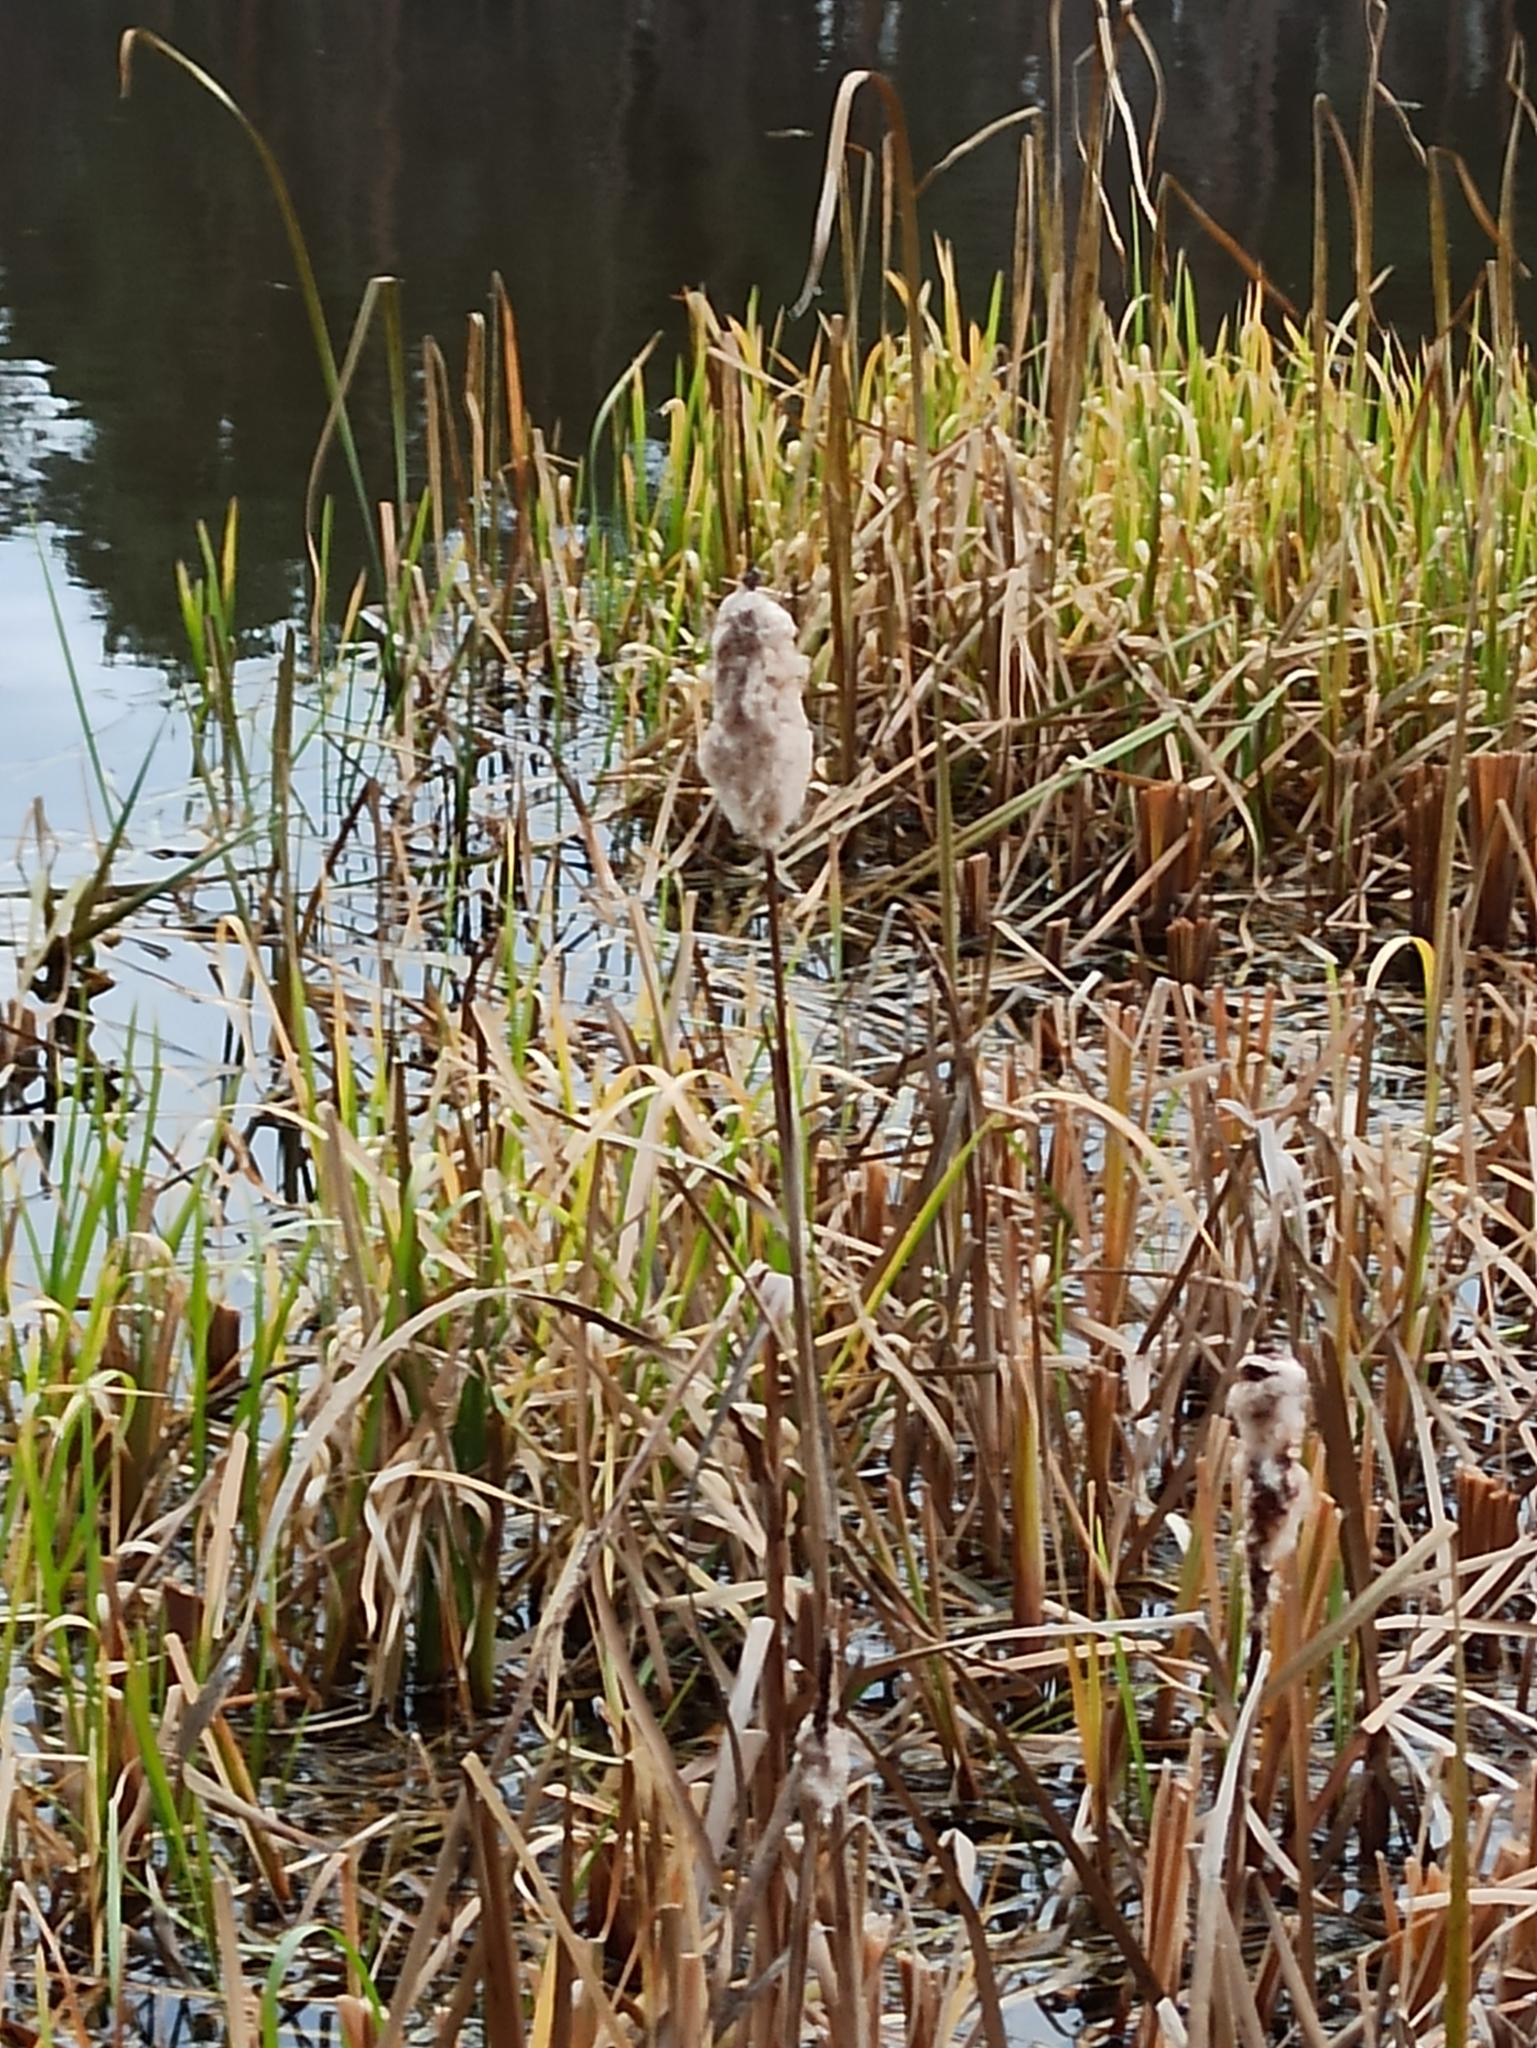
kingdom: Plantae
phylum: Tracheophyta
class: Liliopsida
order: Poales
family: Typhaceae
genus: Typha
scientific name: Typha latifolia
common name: Broadleaf cattail
